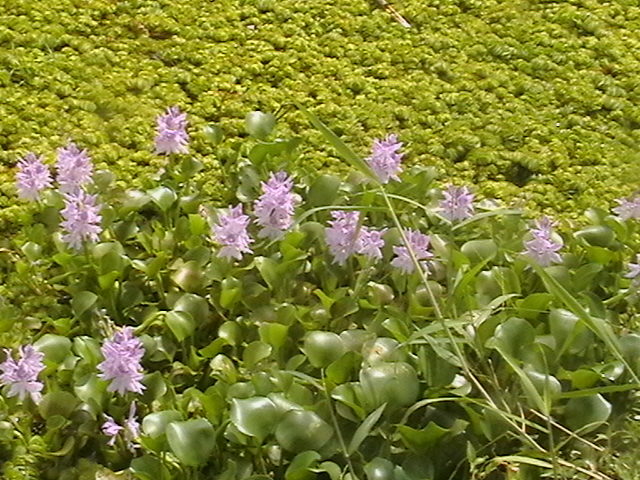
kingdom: Plantae
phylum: Tracheophyta
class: Liliopsida
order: Commelinales
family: Pontederiaceae
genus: Pontederia
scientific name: Pontederia crassipes
